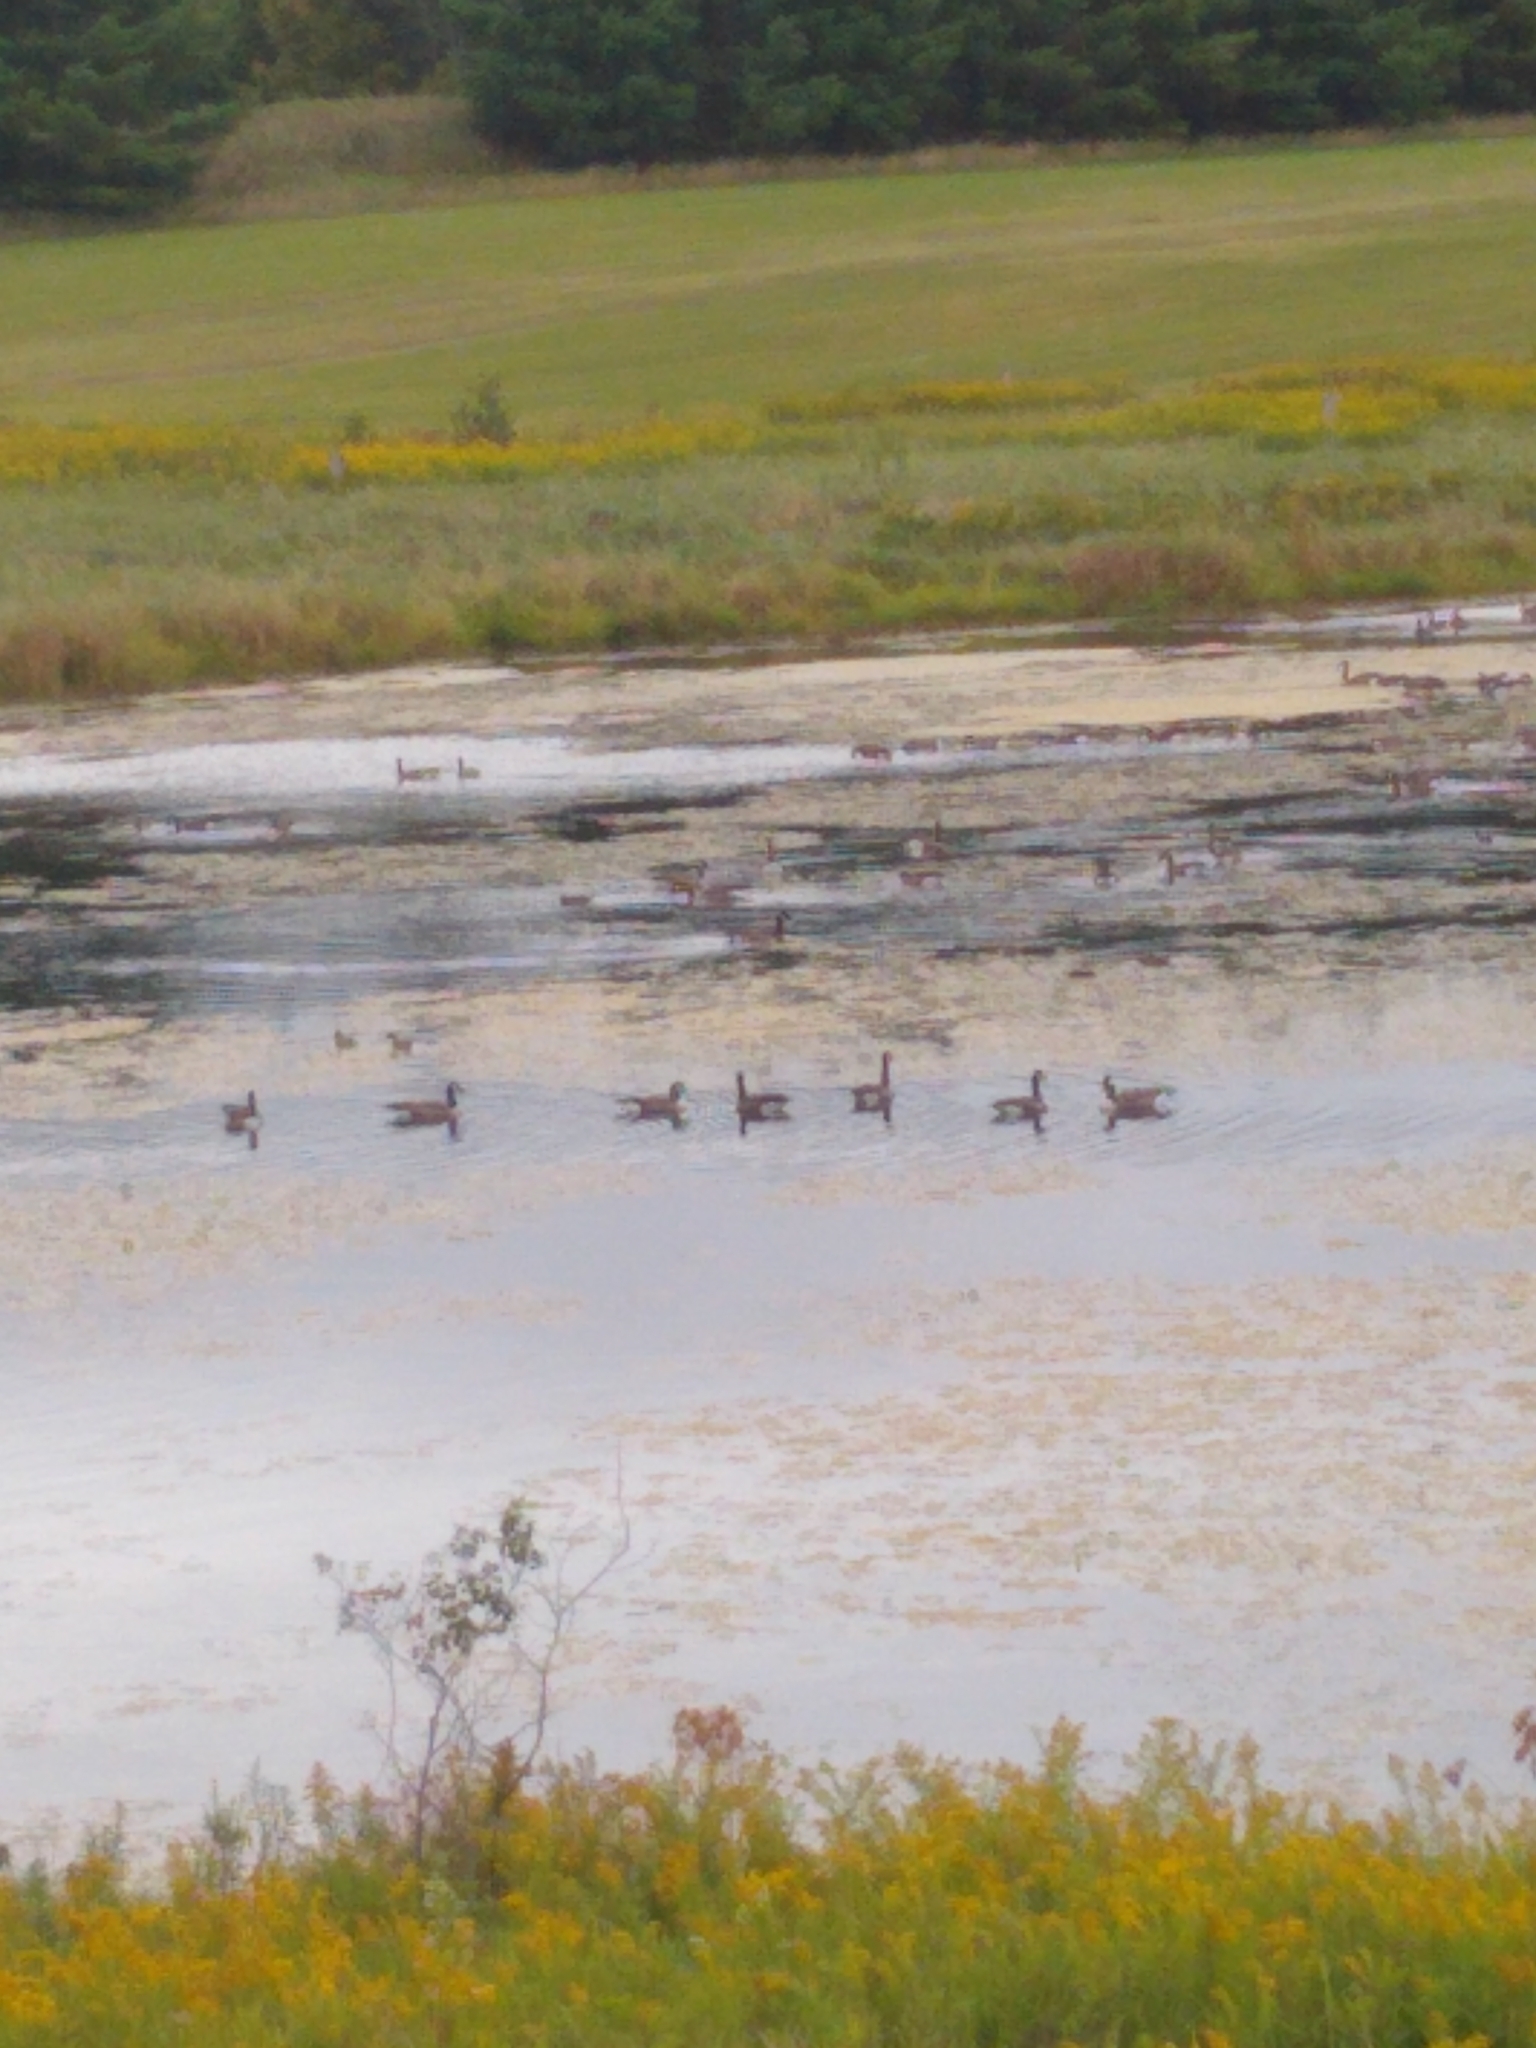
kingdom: Animalia
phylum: Chordata
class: Aves
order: Anseriformes
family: Anatidae
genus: Branta
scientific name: Branta canadensis
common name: Canada goose
